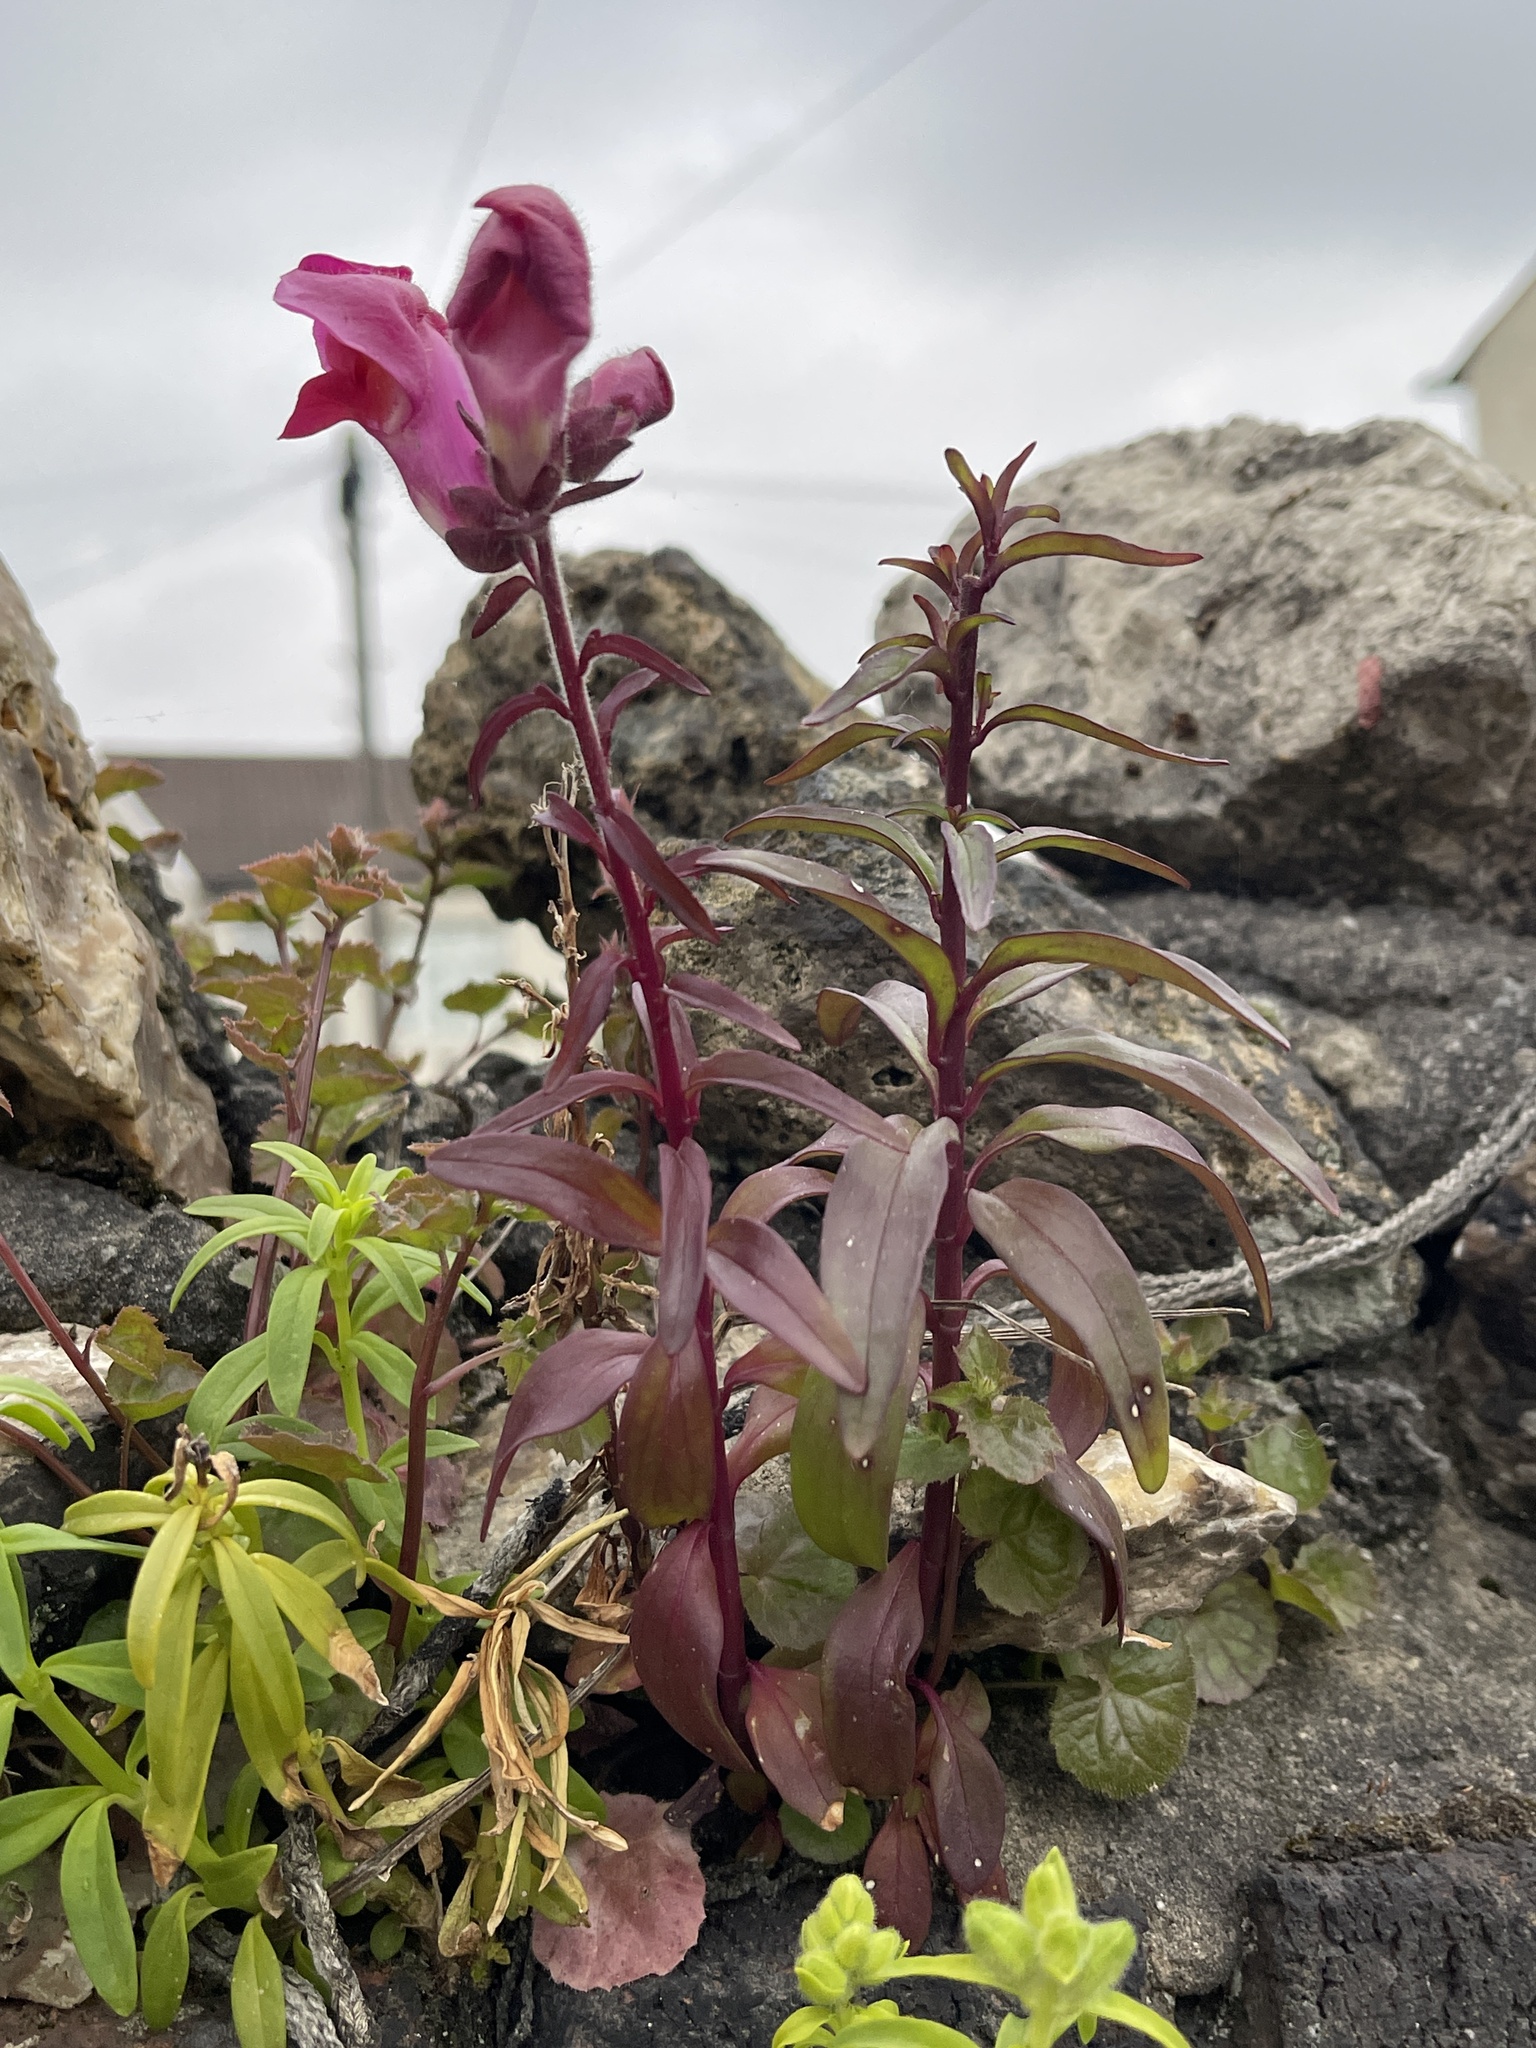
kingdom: Plantae
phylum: Tracheophyta
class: Magnoliopsida
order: Lamiales
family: Plantaginaceae
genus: Antirrhinum
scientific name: Antirrhinum majus
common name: Snapdragon
